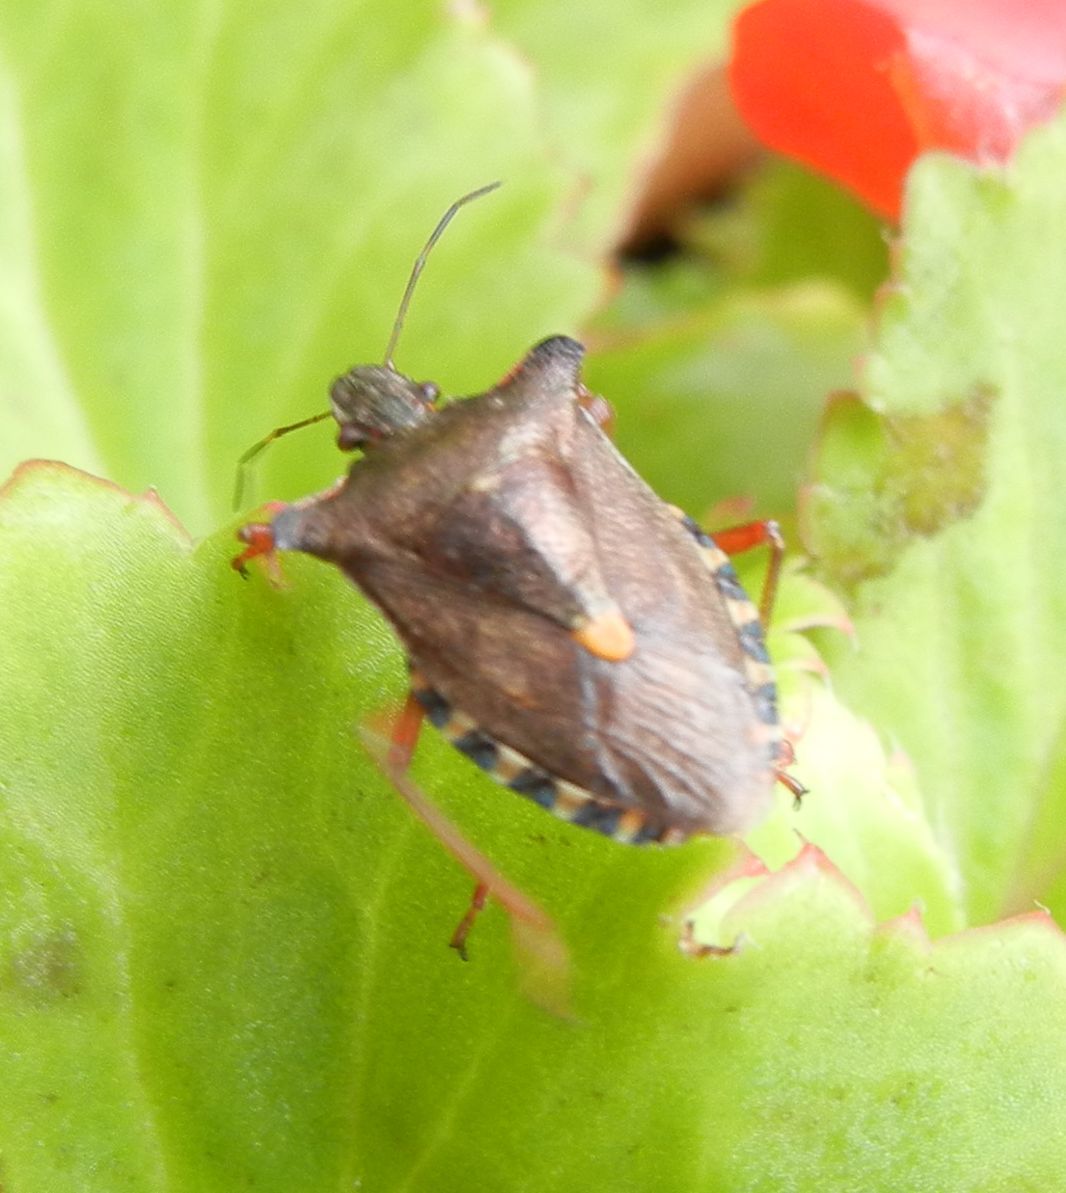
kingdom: Animalia
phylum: Arthropoda
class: Insecta
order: Hemiptera
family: Pentatomidae
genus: Pentatoma
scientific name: Pentatoma rufipes
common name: Forest bug
